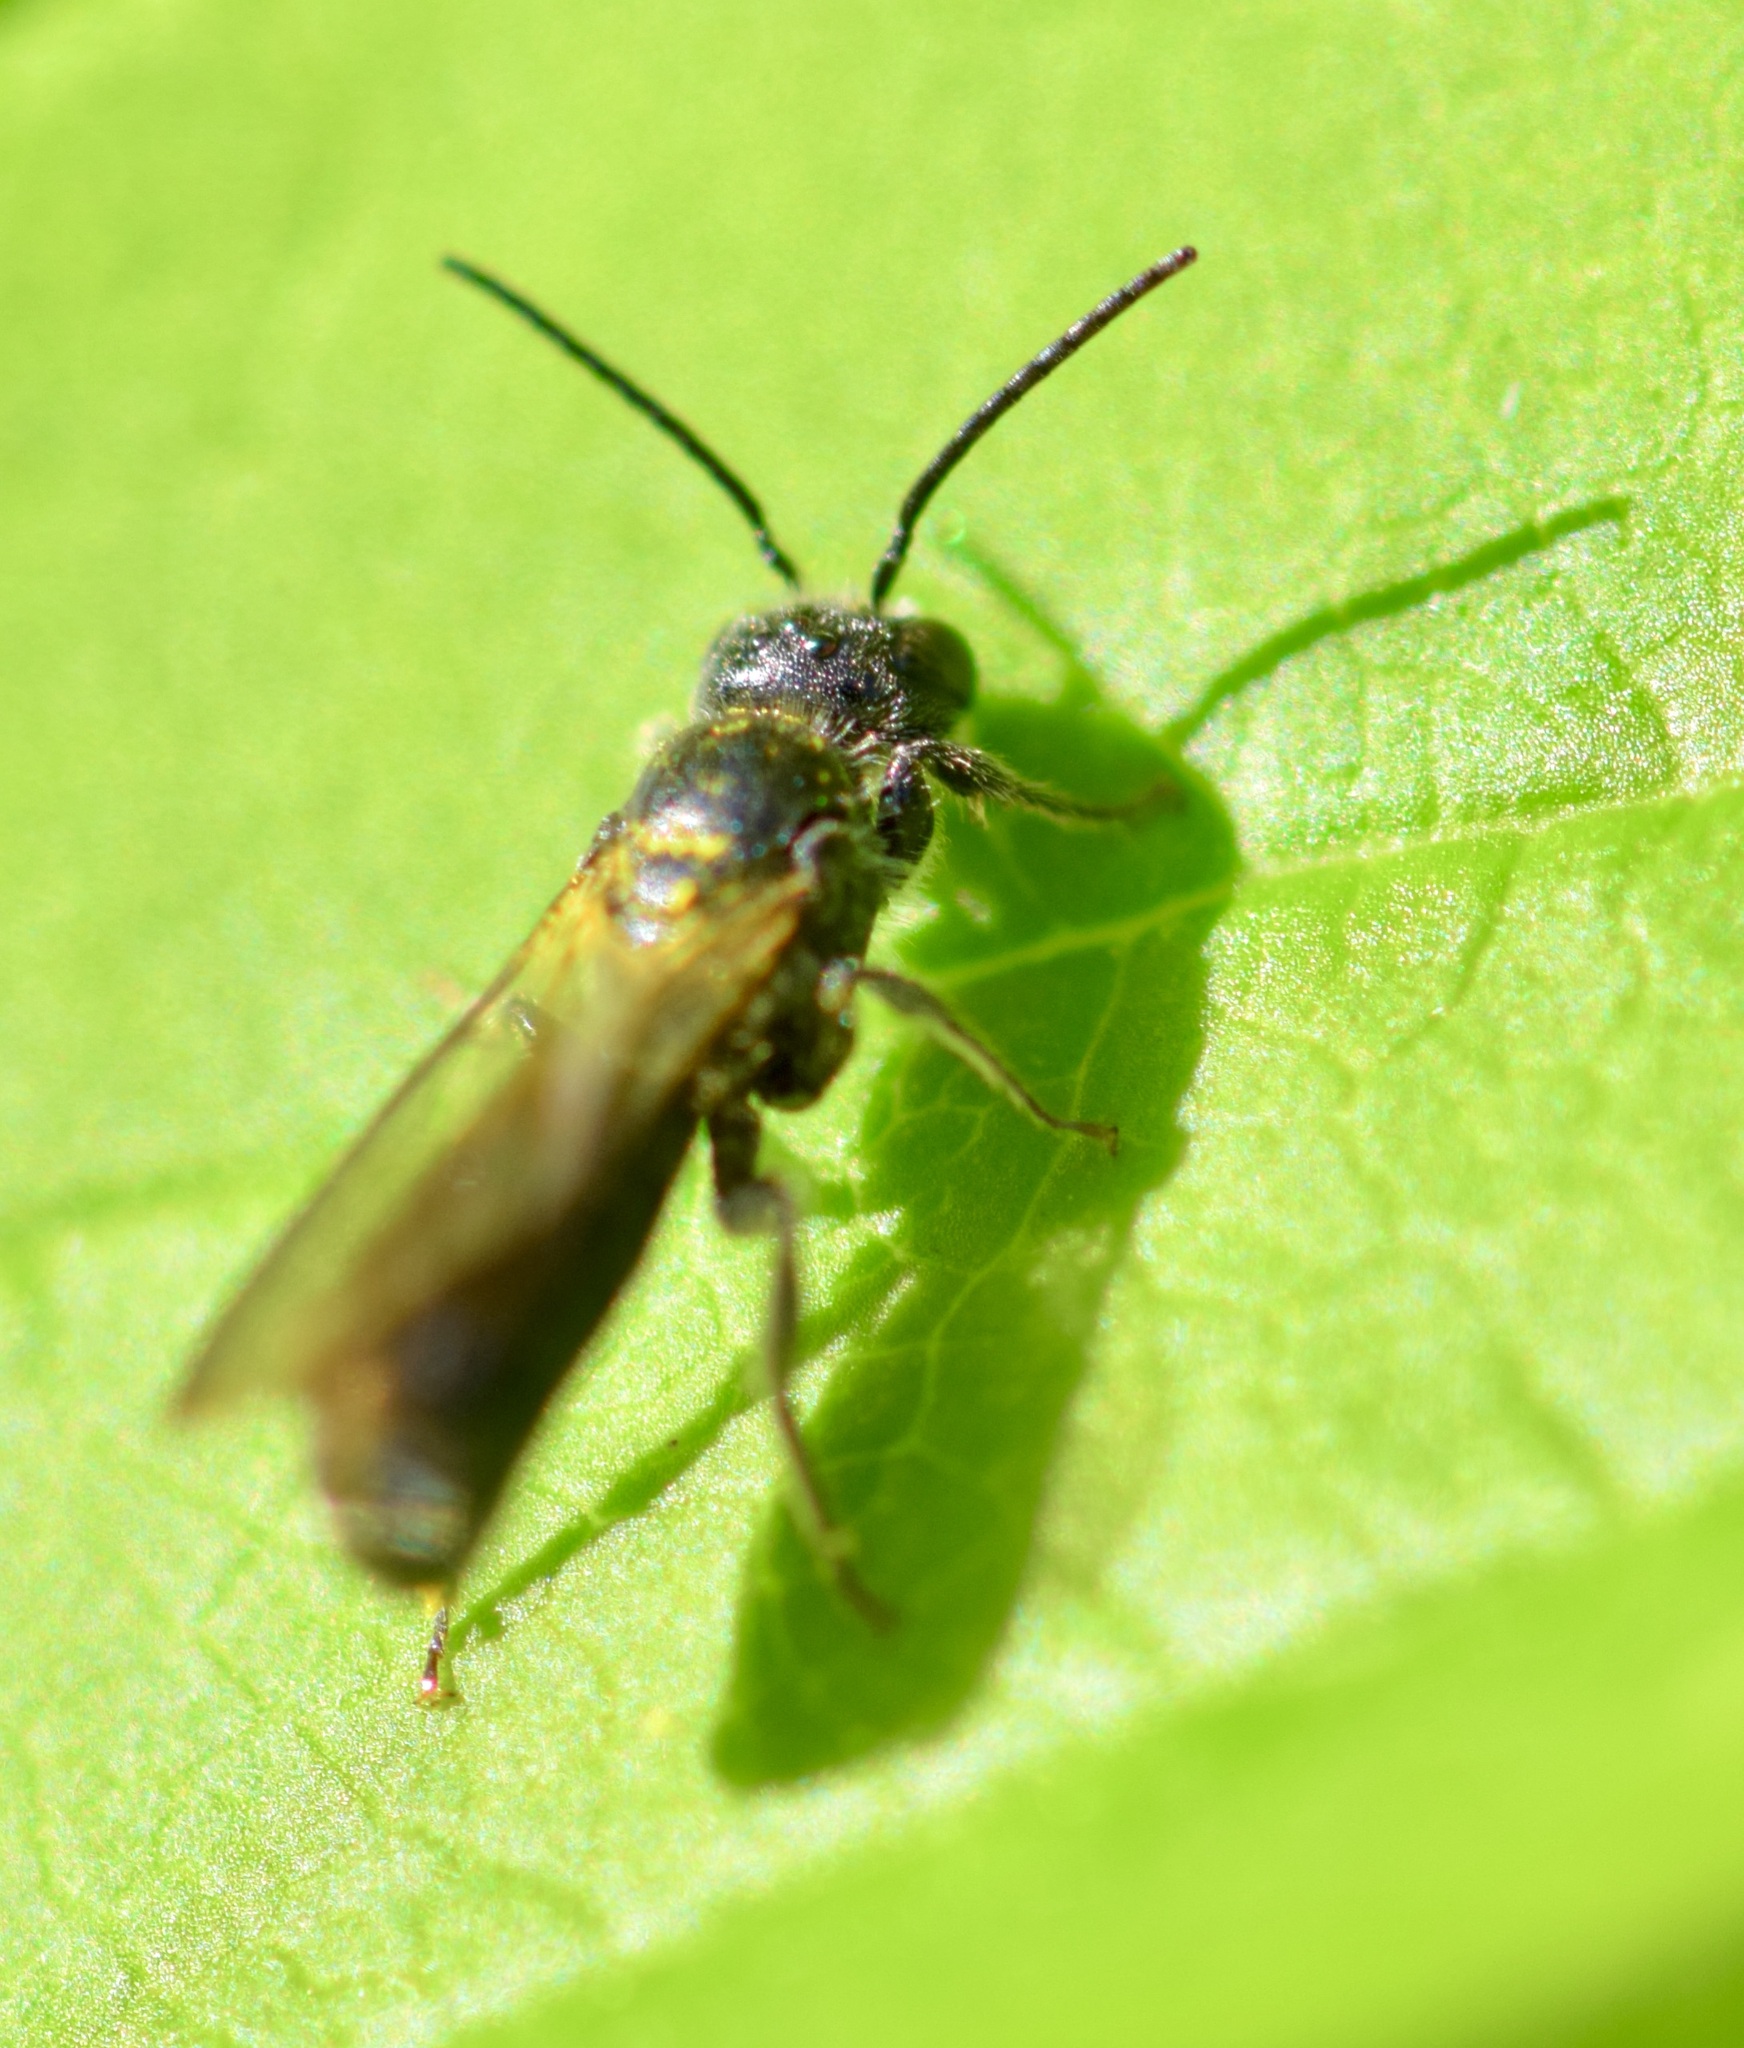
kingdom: Animalia
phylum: Arthropoda
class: Insecta
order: Hymenoptera
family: Megachilidae
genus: Chelostoma
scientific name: Chelostoma philadelphi
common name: Mock-orange scissor bee
